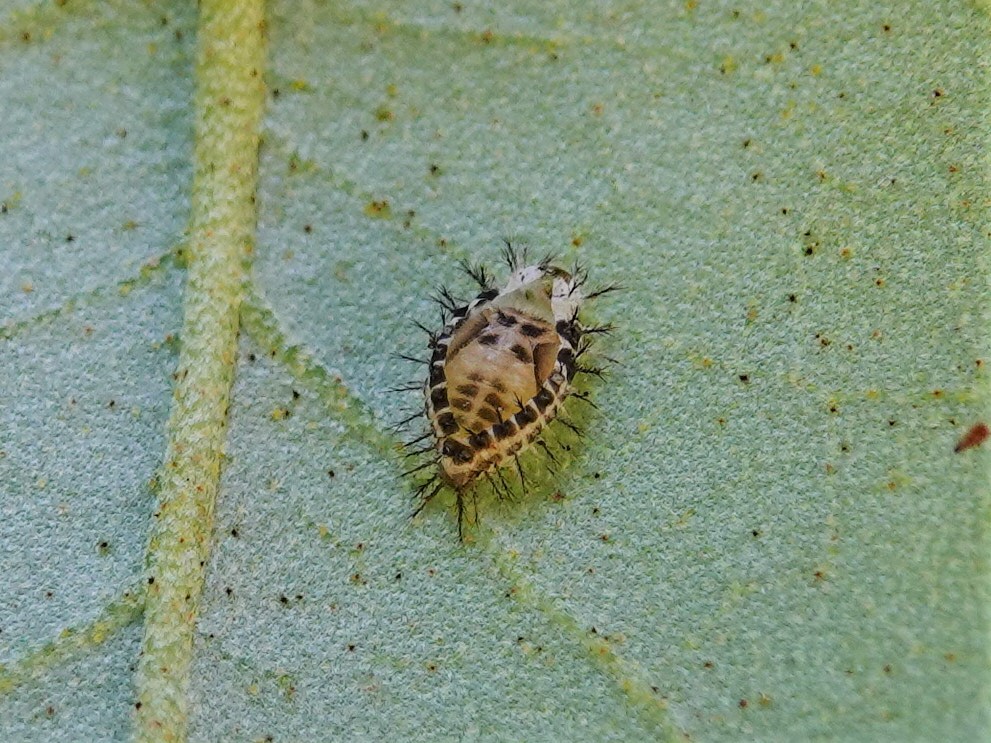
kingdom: Animalia
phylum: Arthropoda
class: Insecta
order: Coleoptera
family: Coccinellidae
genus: Halmus
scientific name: Halmus chalybeus
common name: Steel blue ladybird beetle
